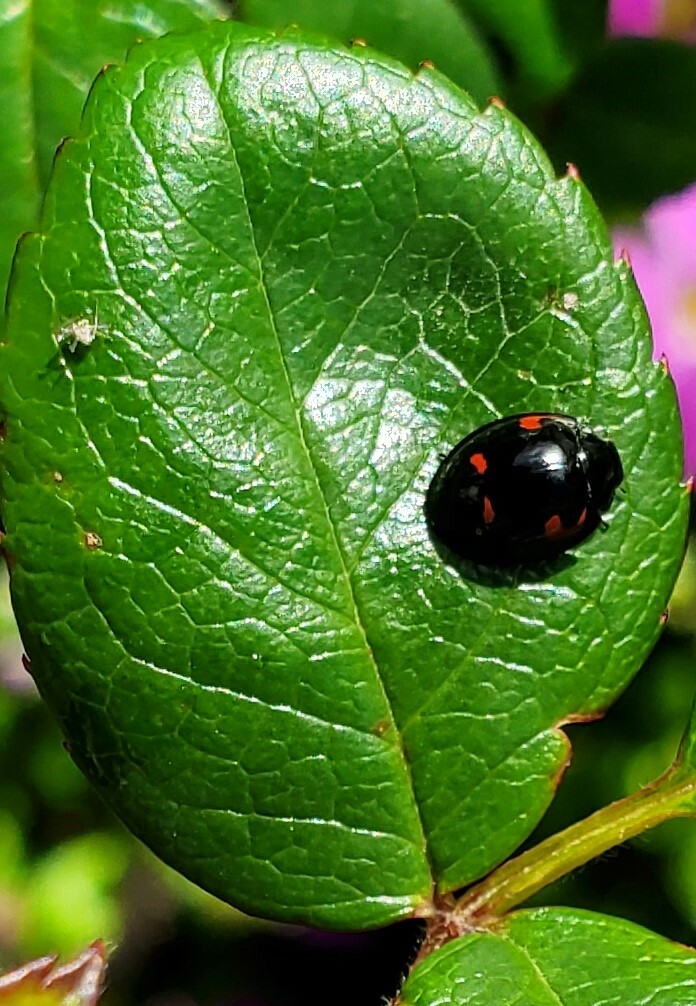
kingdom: Animalia
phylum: Arthropoda
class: Insecta
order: Coleoptera
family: Coccinellidae
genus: Brumus
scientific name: Brumus quadripustulatus
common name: Ladybird beetle
